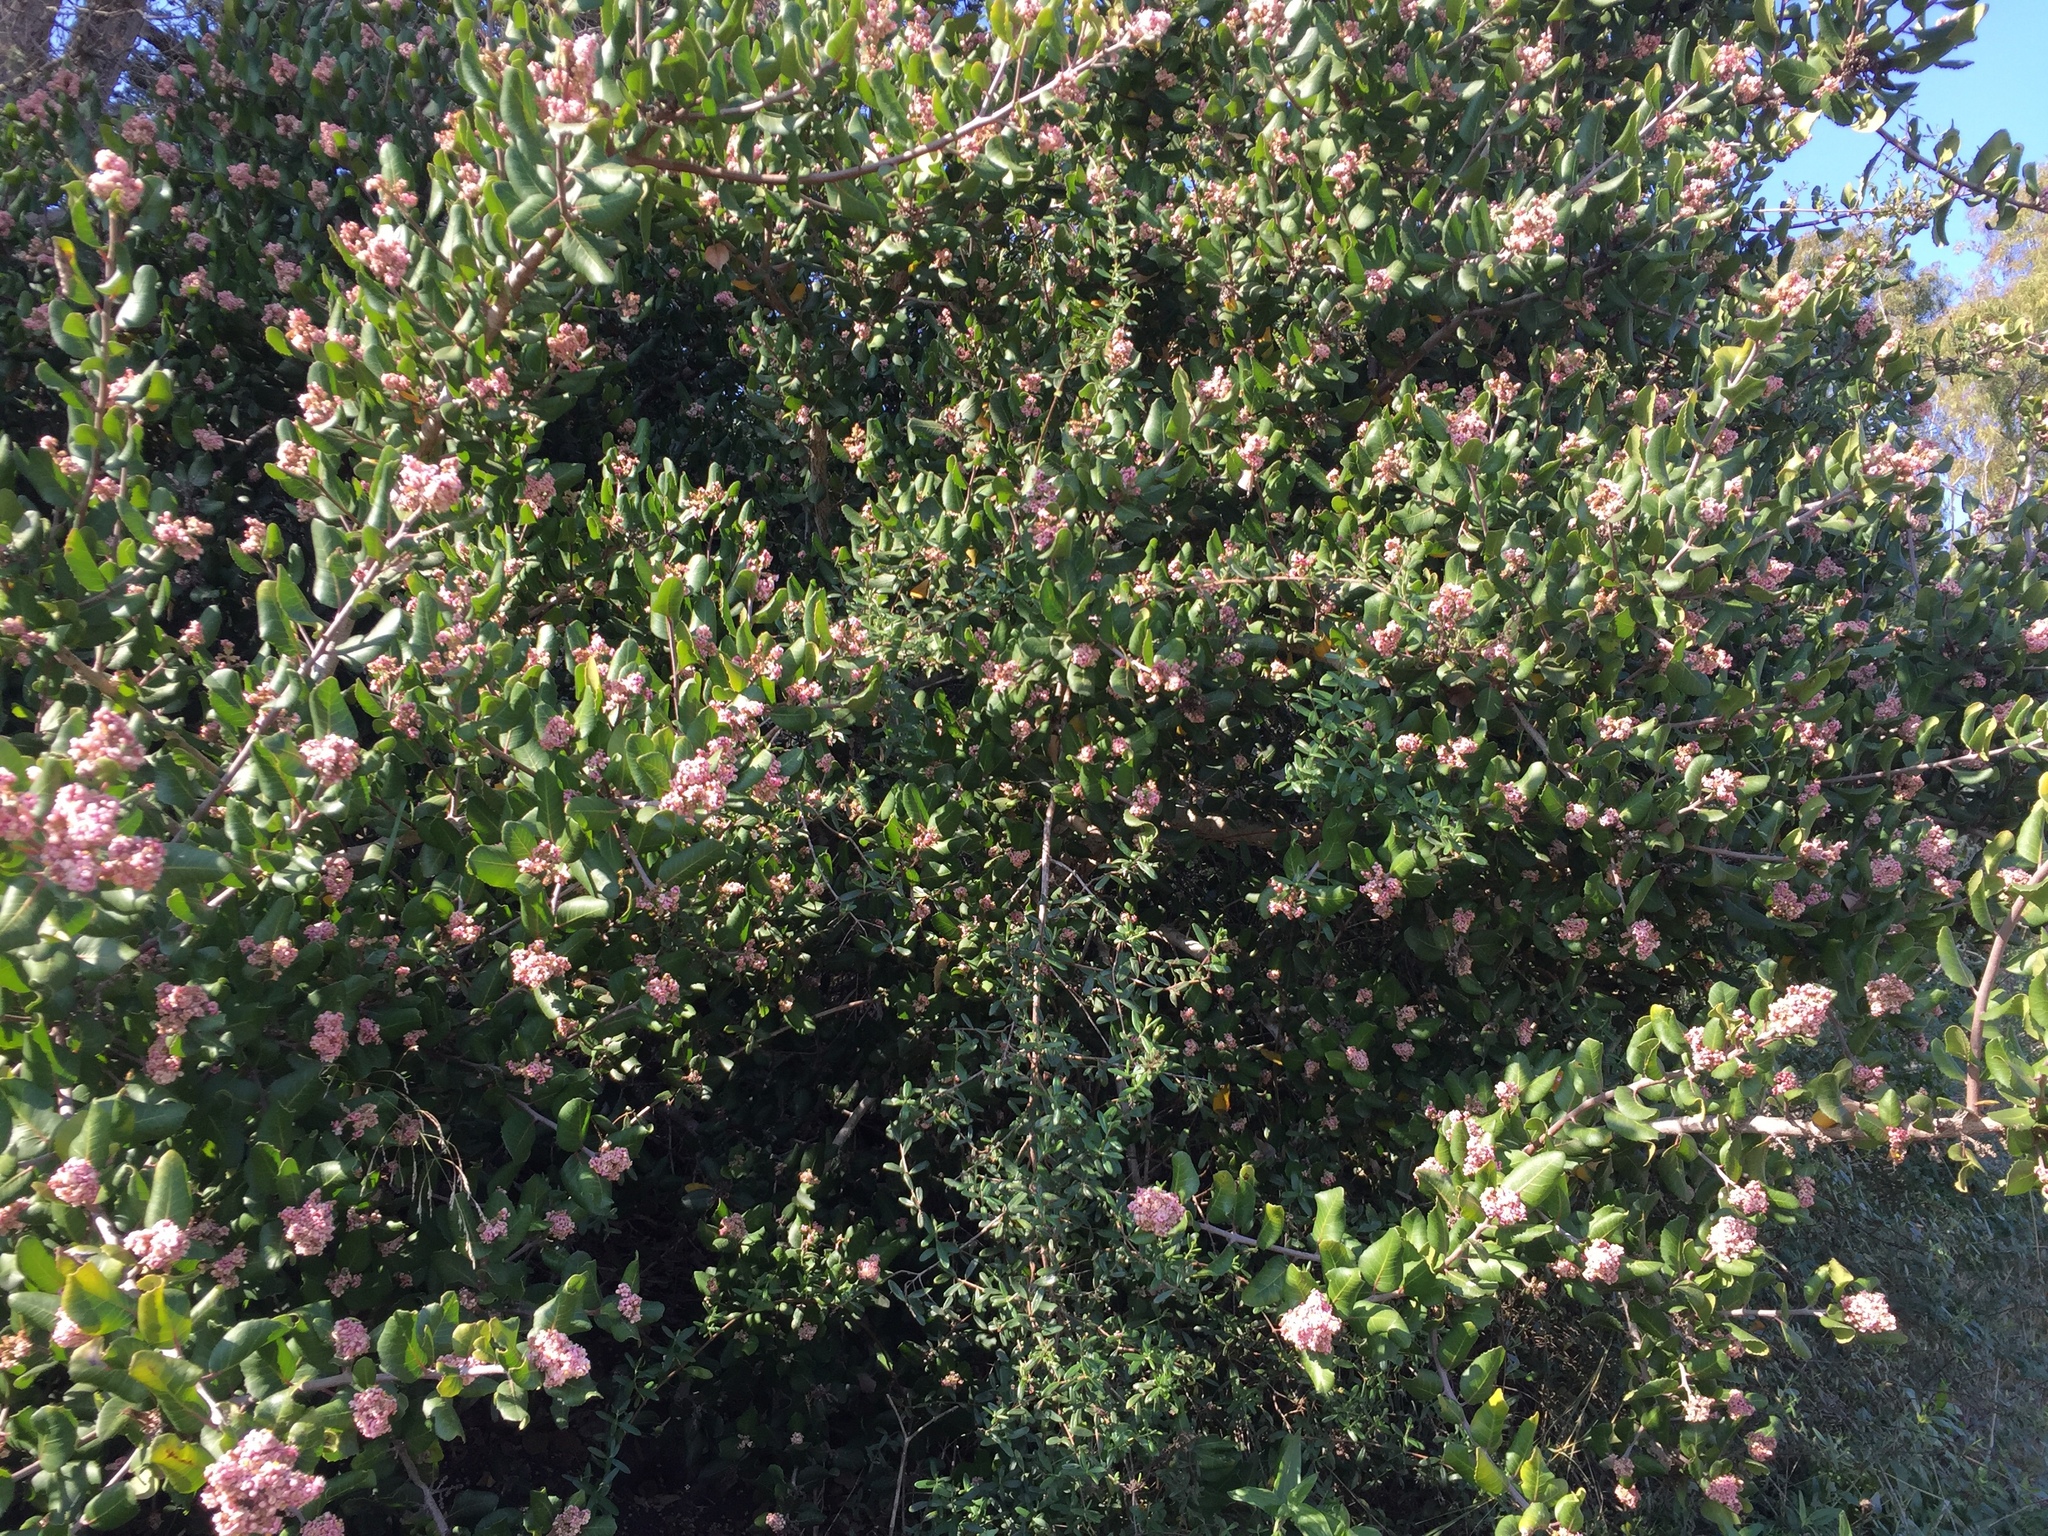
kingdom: Plantae
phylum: Tracheophyta
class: Magnoliopsida
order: Sapindales
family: Anacardiaceae
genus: Rhus
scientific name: Rhus integrifolia
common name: Lemonade sumac
